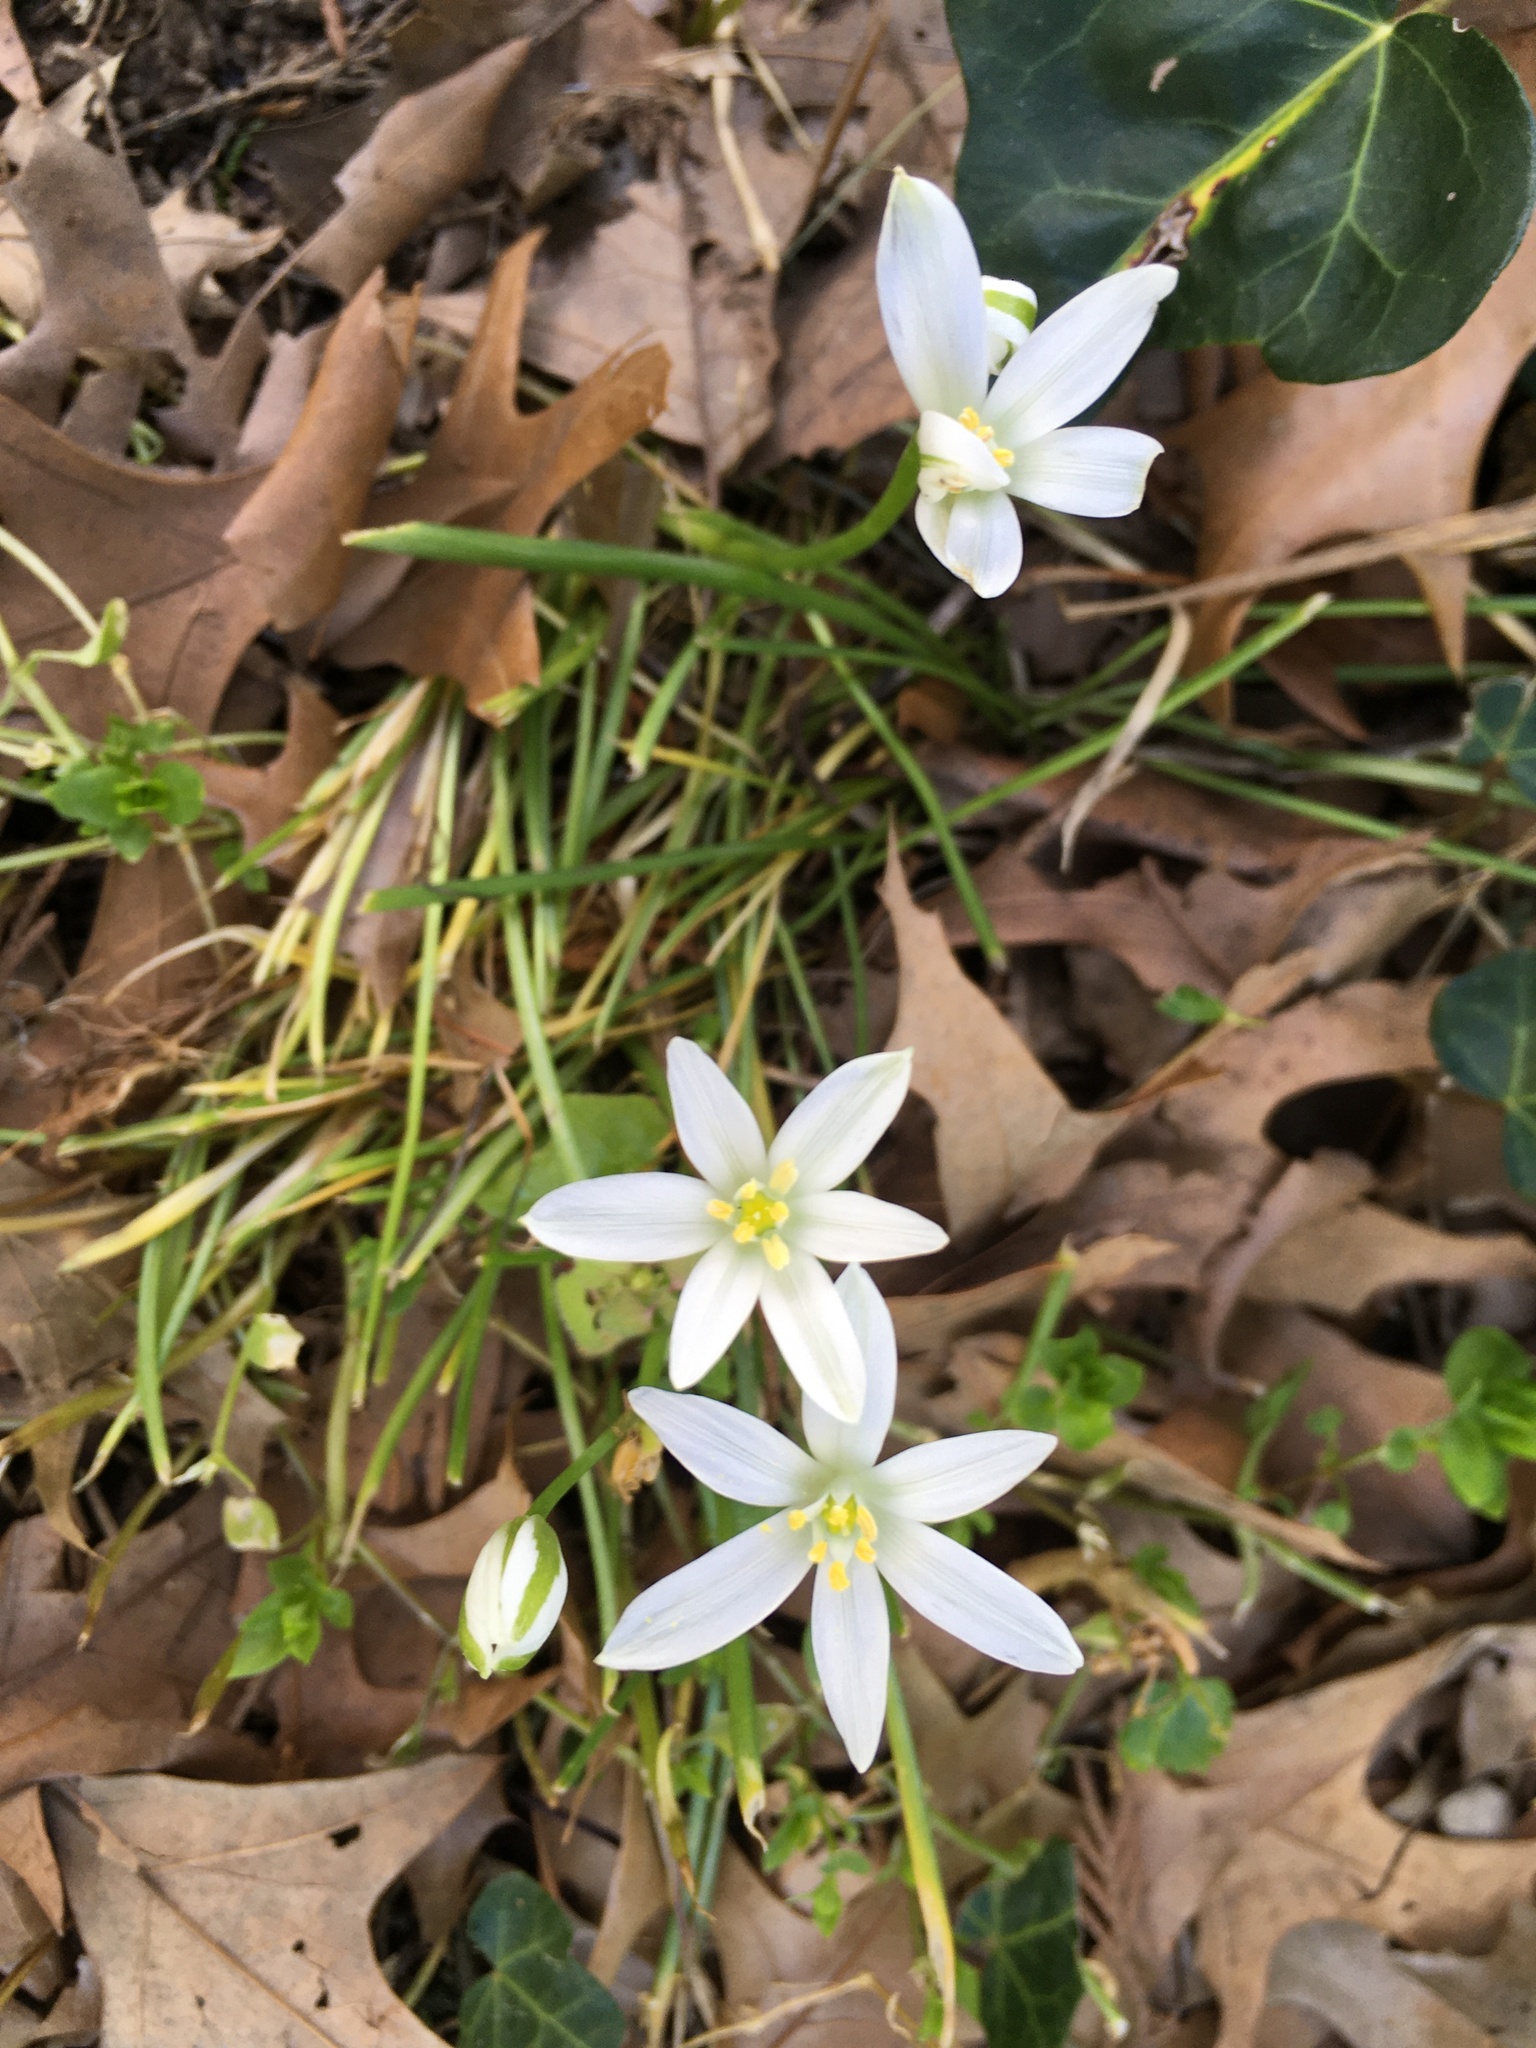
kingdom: Plantae
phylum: Tracheophyta
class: Liliopsida
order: Asparagales
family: Asparagaceae
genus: Ornithogalum
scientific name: Ornithogalum umbellatum
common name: Garden star-of-bethlehem
